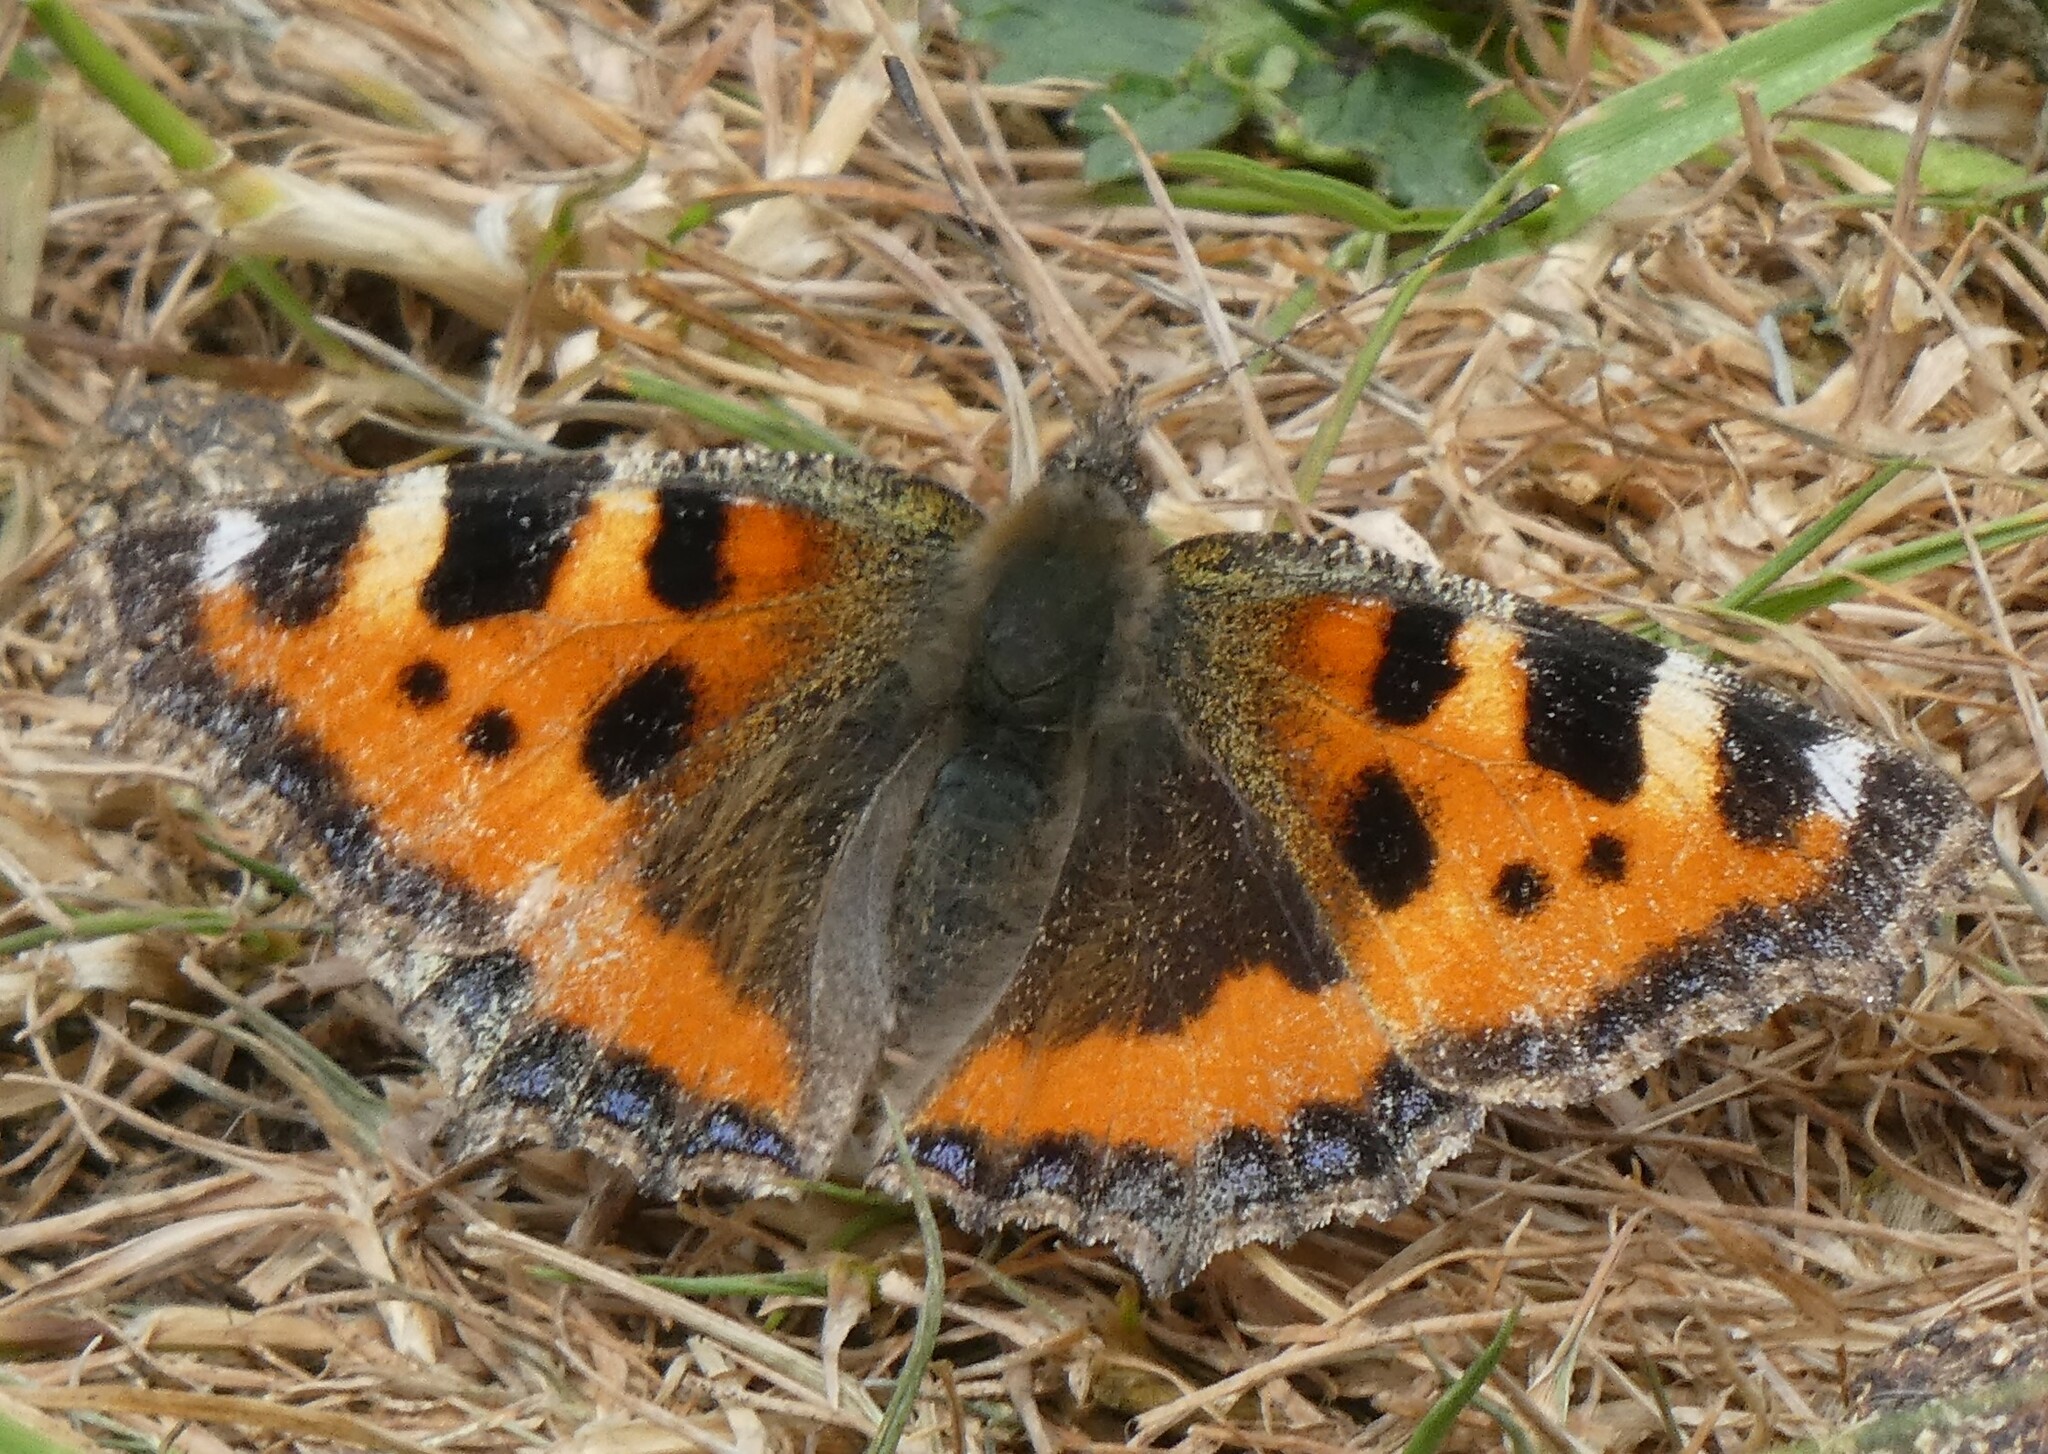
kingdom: Animalia
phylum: Arthropoda
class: Insecta
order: Lepidoptera
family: Nymphalidae
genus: Aglais
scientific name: Aglais urticae
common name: Small tortoiseshell
